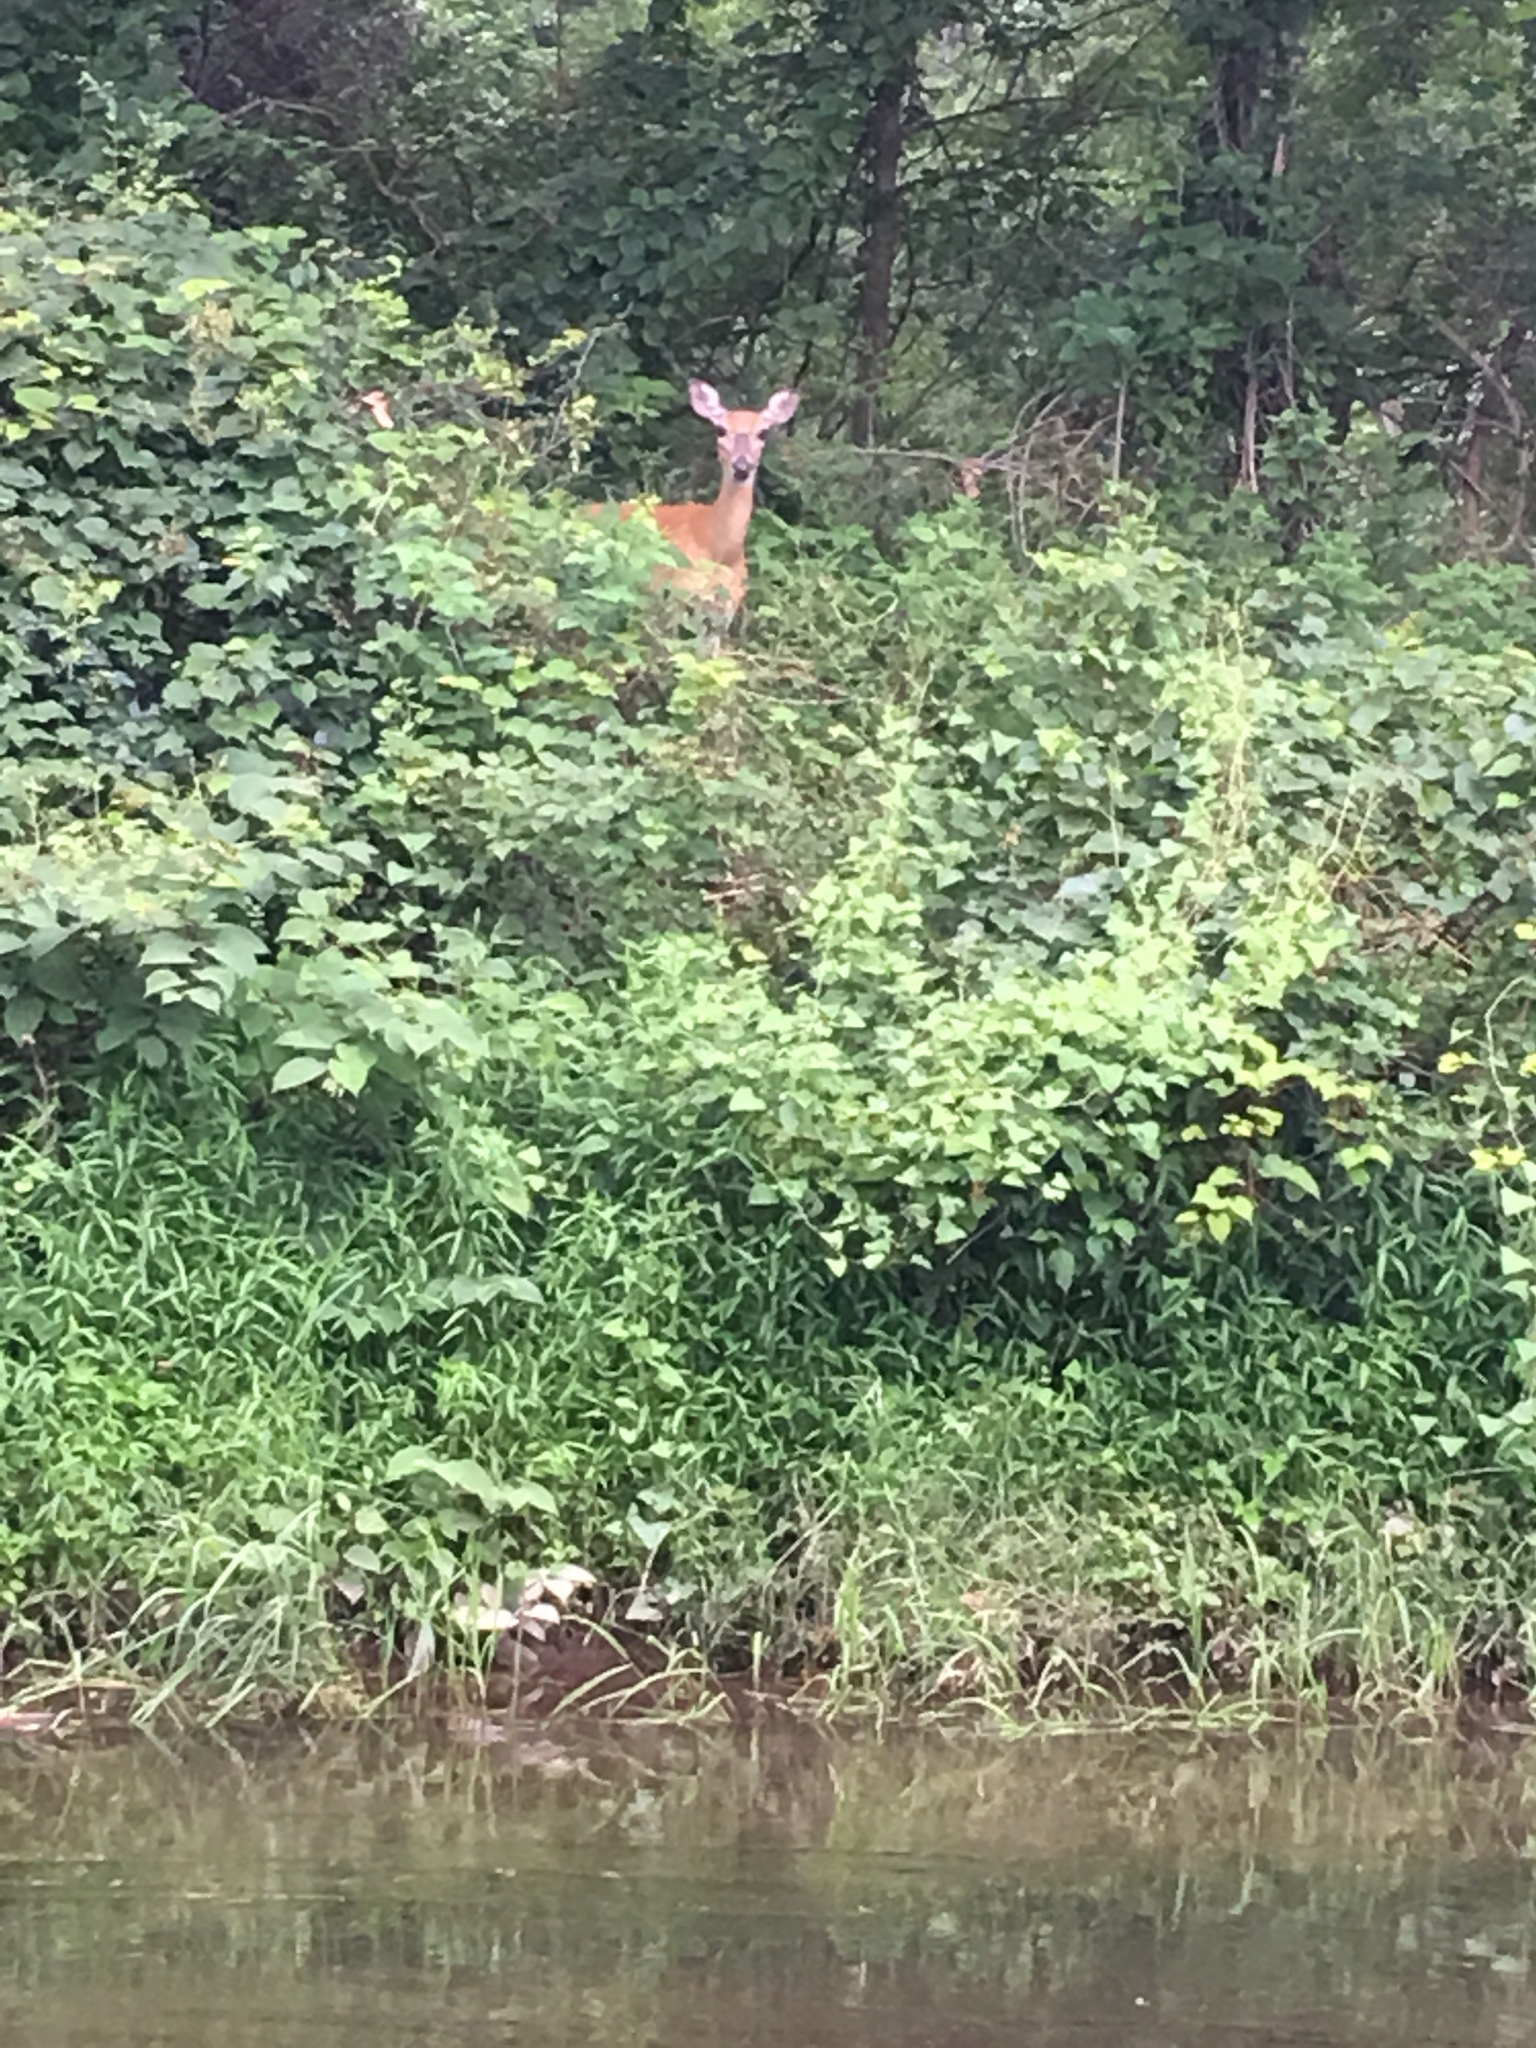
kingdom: Animalia
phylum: Chordata
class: Mammalia
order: Artiodactyla
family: Cervidae
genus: Odocoileus
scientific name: Odocoileus virginianus
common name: White-tailed deer
